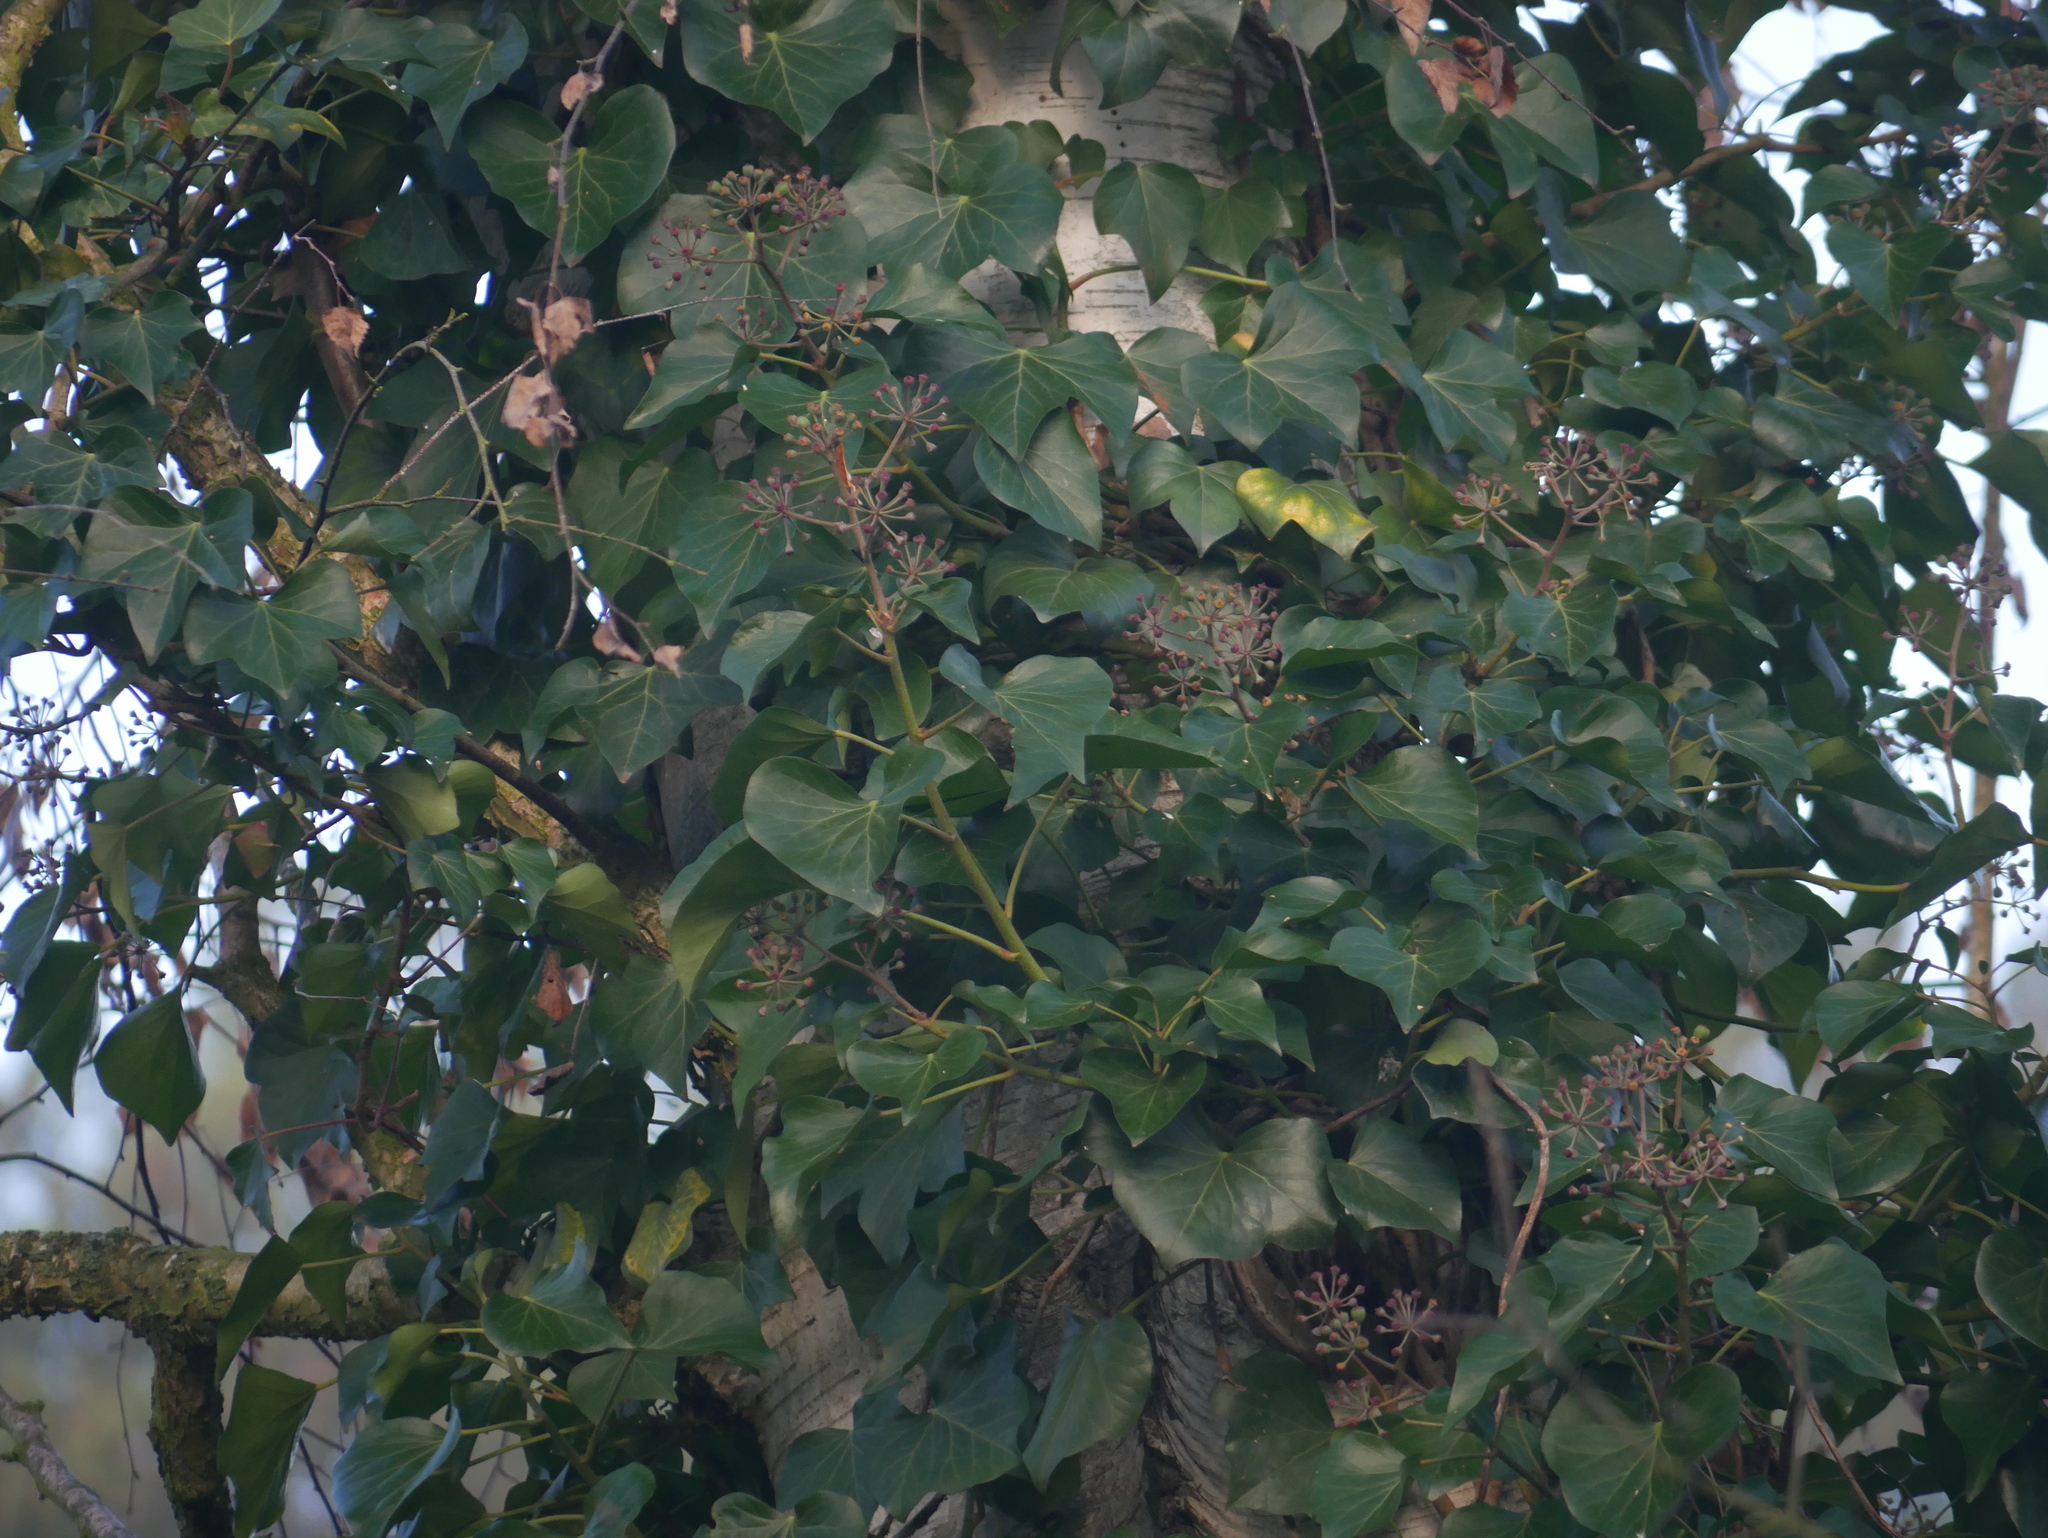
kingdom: Plantae
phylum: Tracheophyta
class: Magnoliopsida
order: Apiales
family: Araliaceae
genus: Hedera
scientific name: Hedera helix
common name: Ivy
